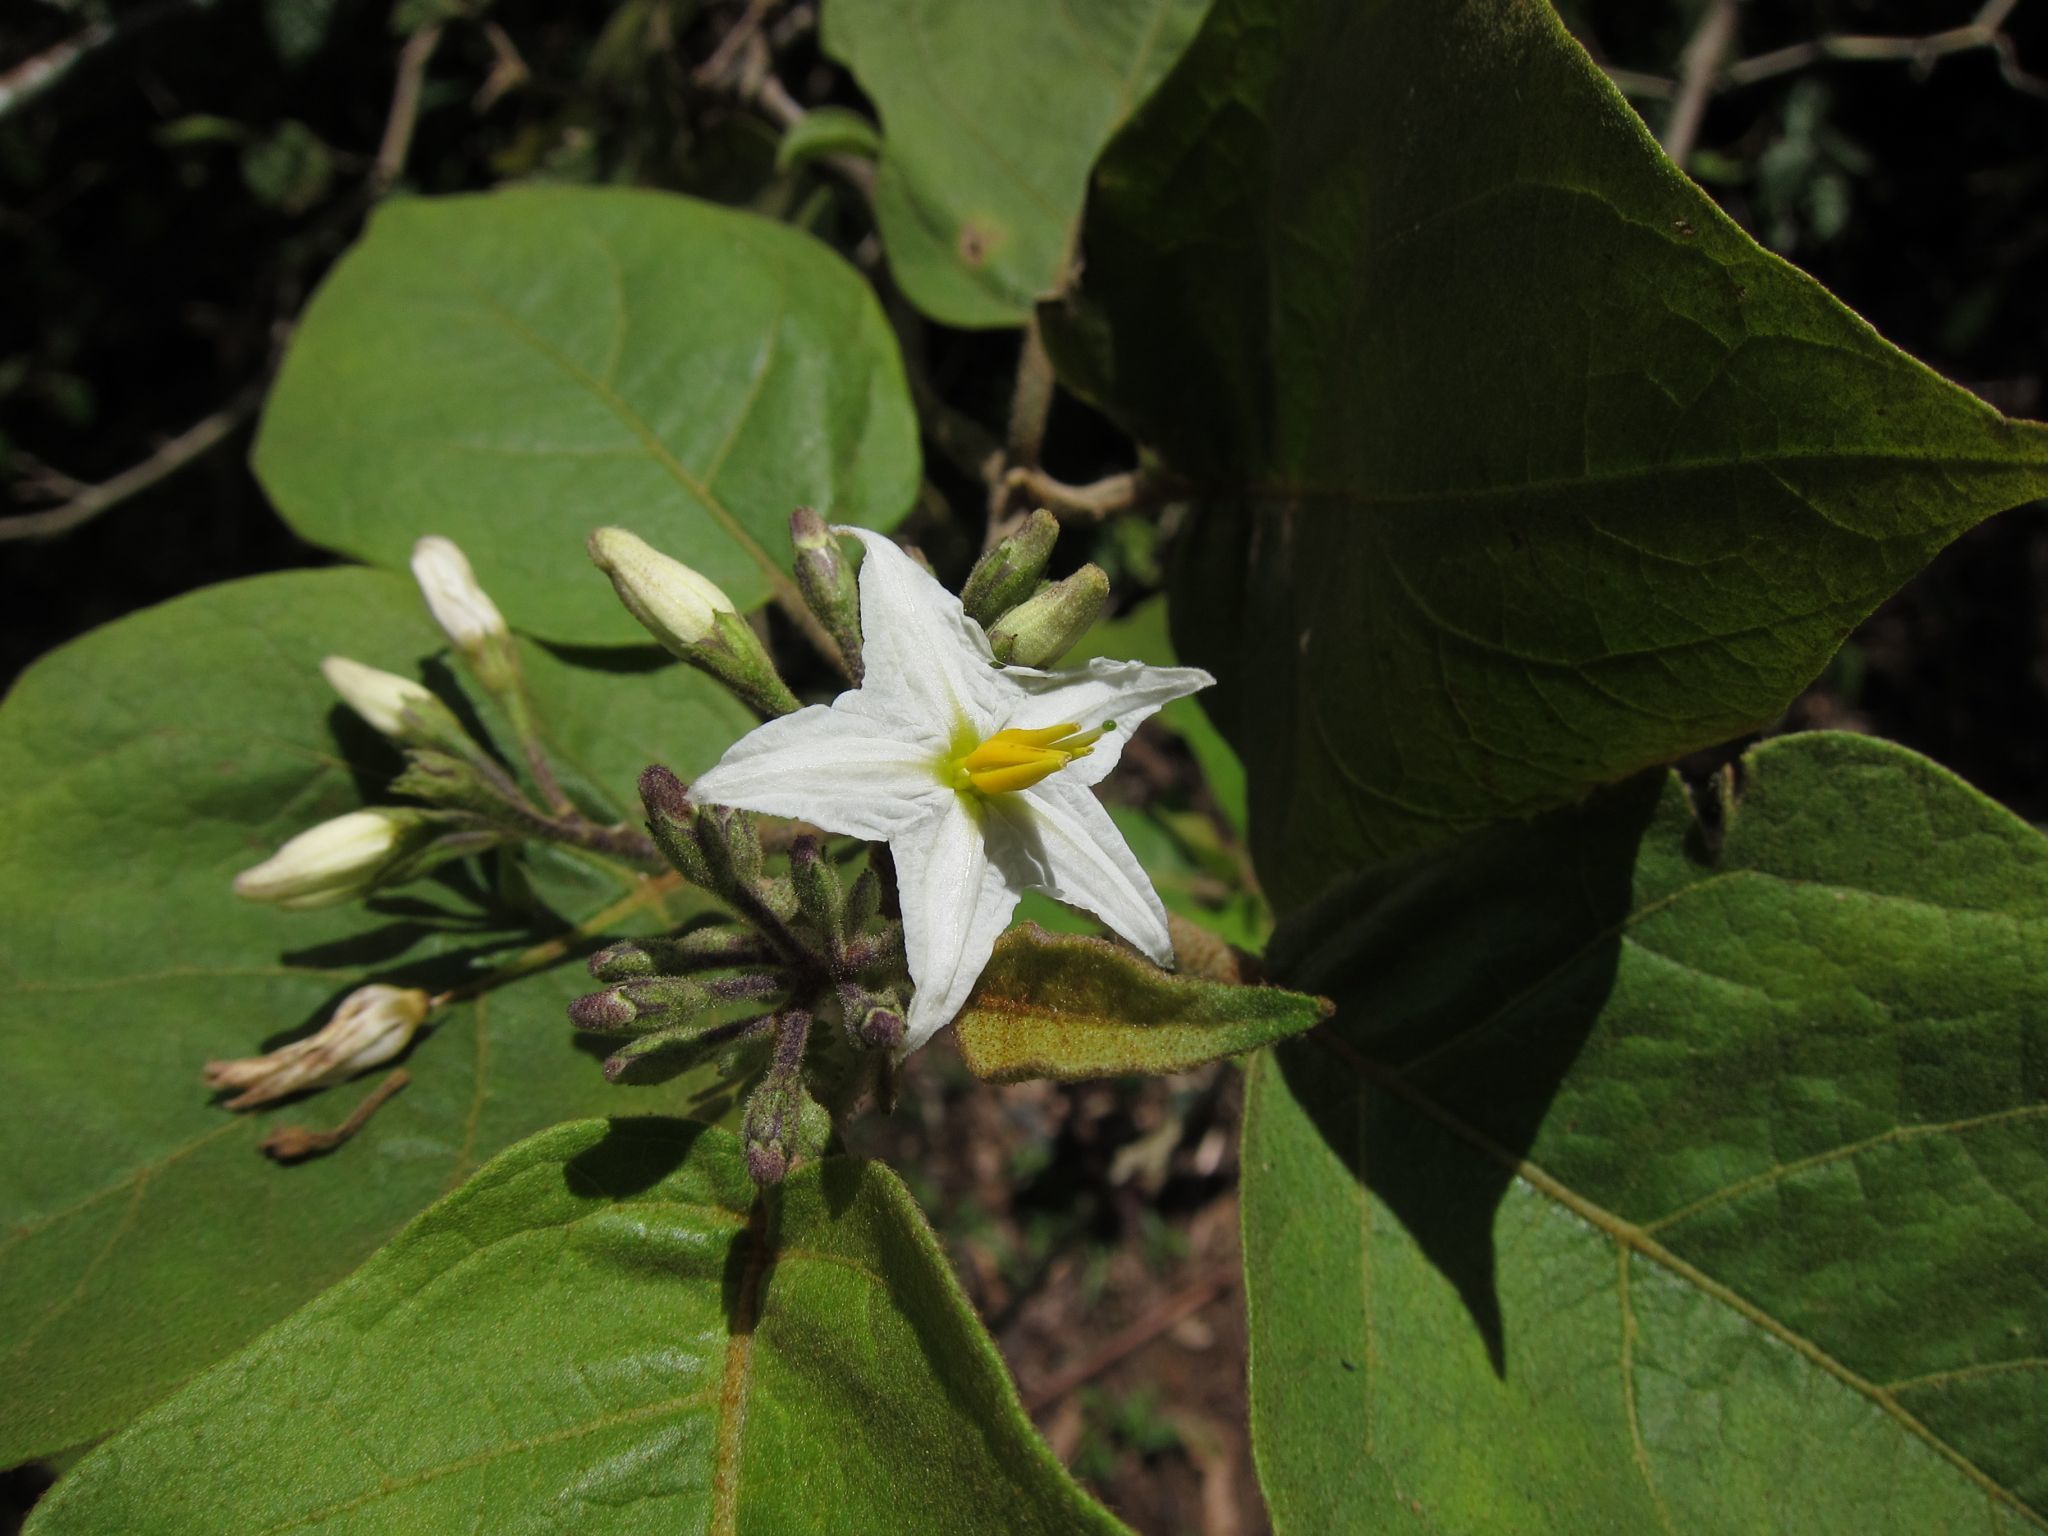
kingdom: Plantae
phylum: Tracheophyta
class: Magnoliopsida
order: Solanales
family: Solanaceae
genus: Solanum
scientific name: Solanum torvum
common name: Turkey berry
